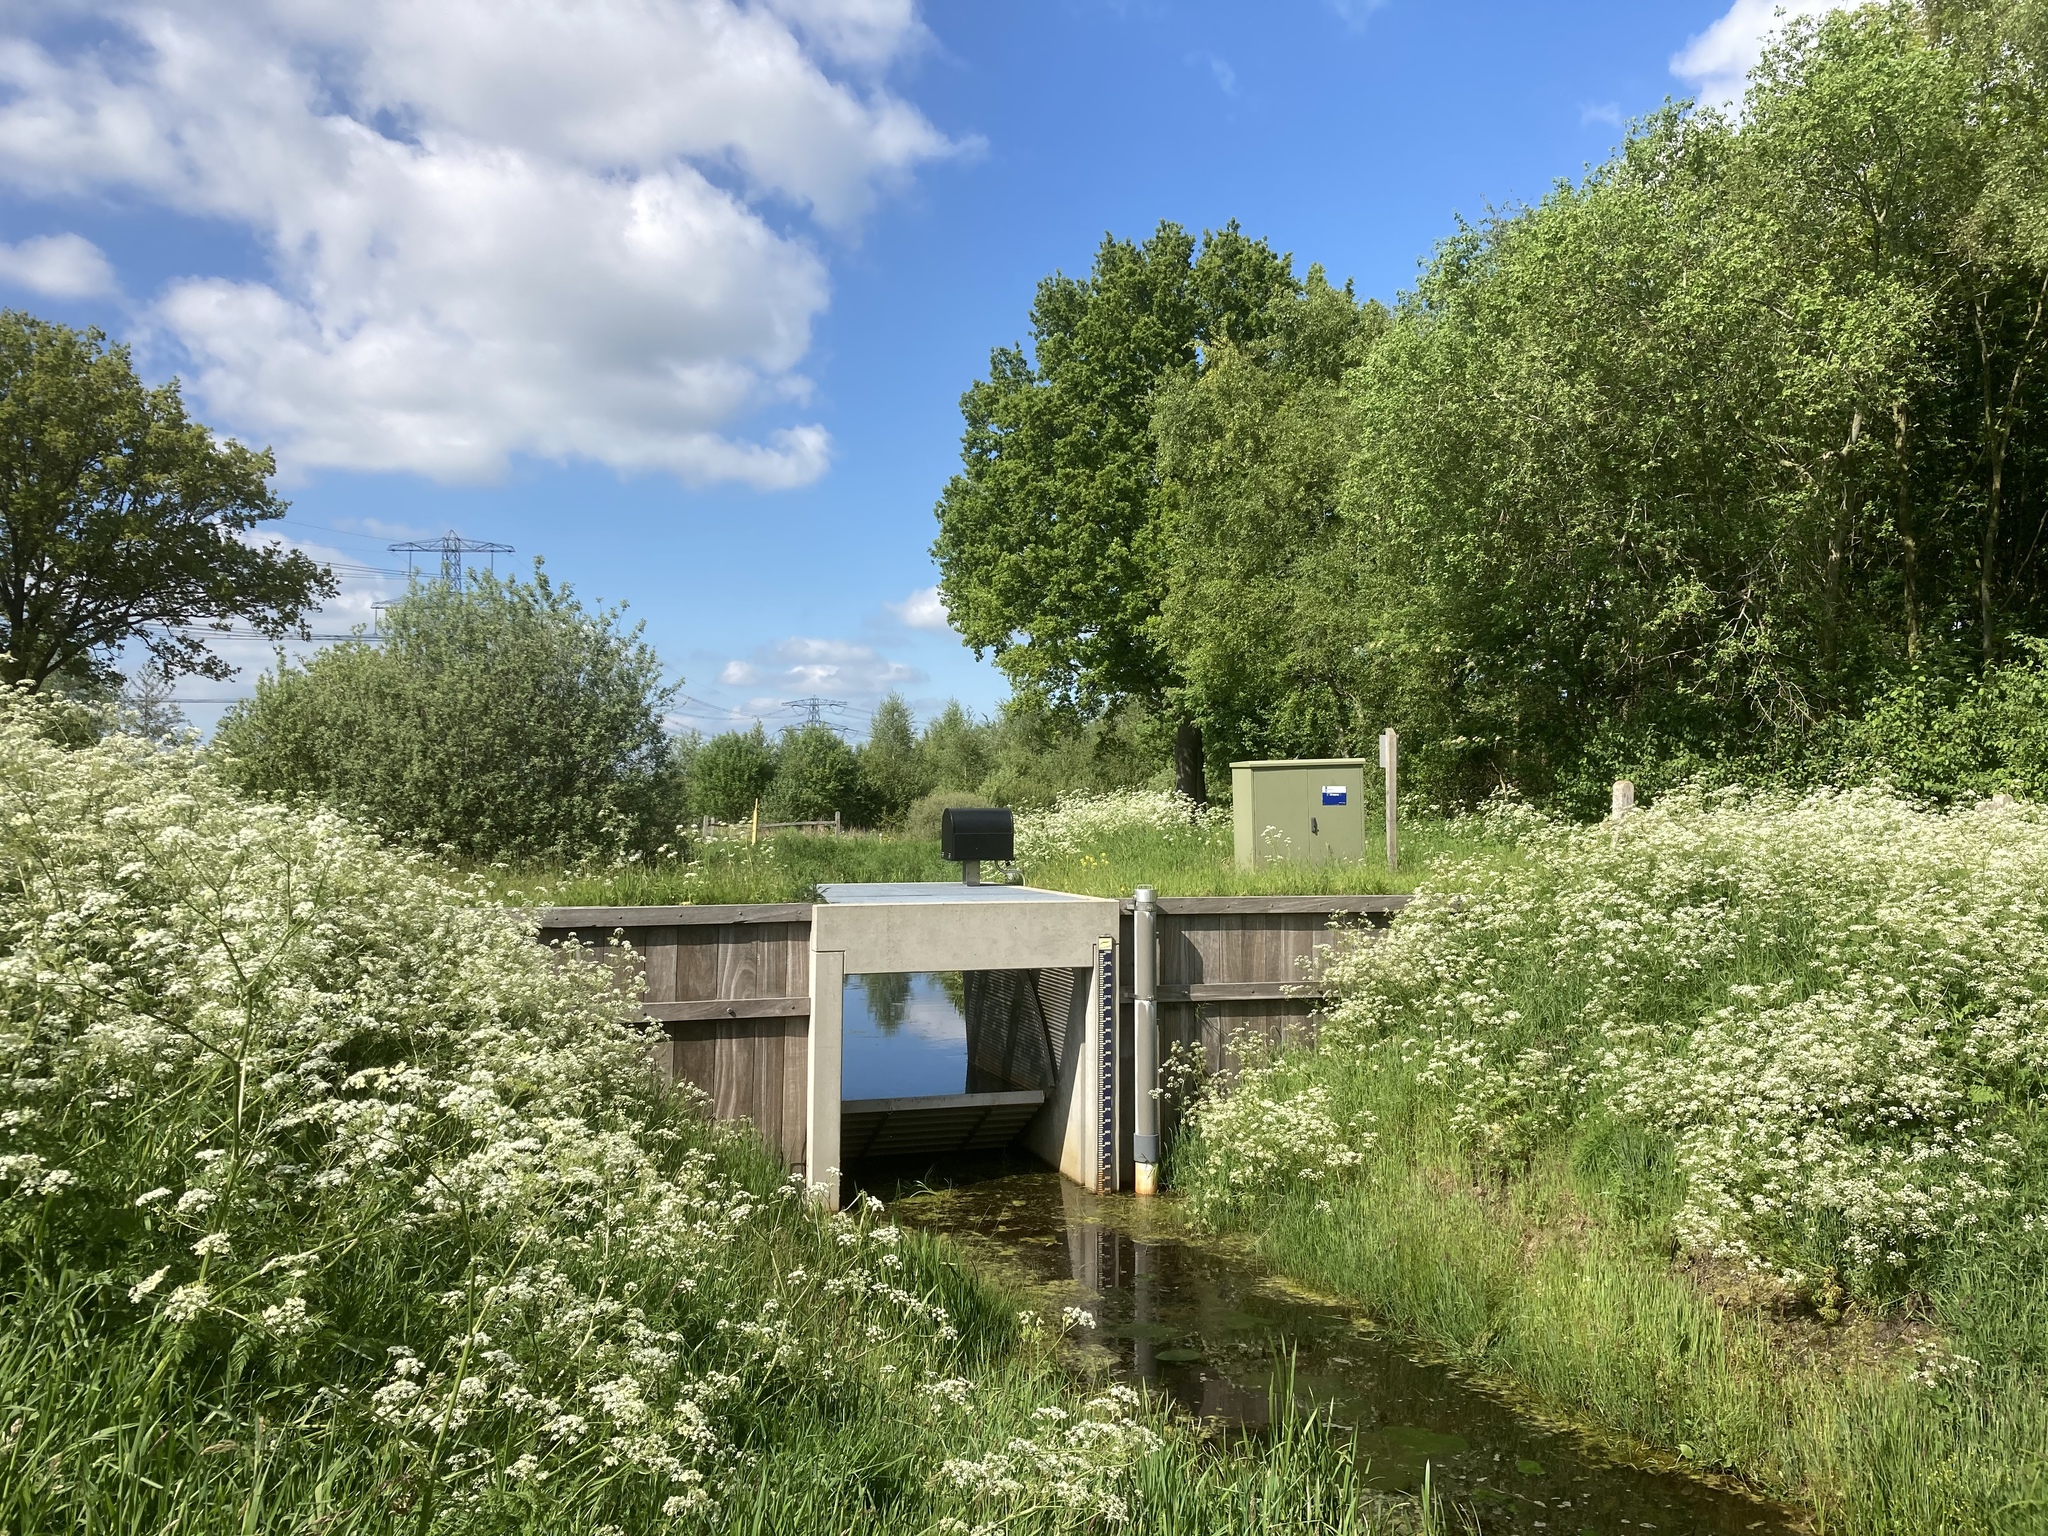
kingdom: Plantae
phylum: Tracheophyta
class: Magnoliopsida
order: Apiales
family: Apiaceae
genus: Anthriscus
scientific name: Anthriscus sylvestris
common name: Cow parsley
